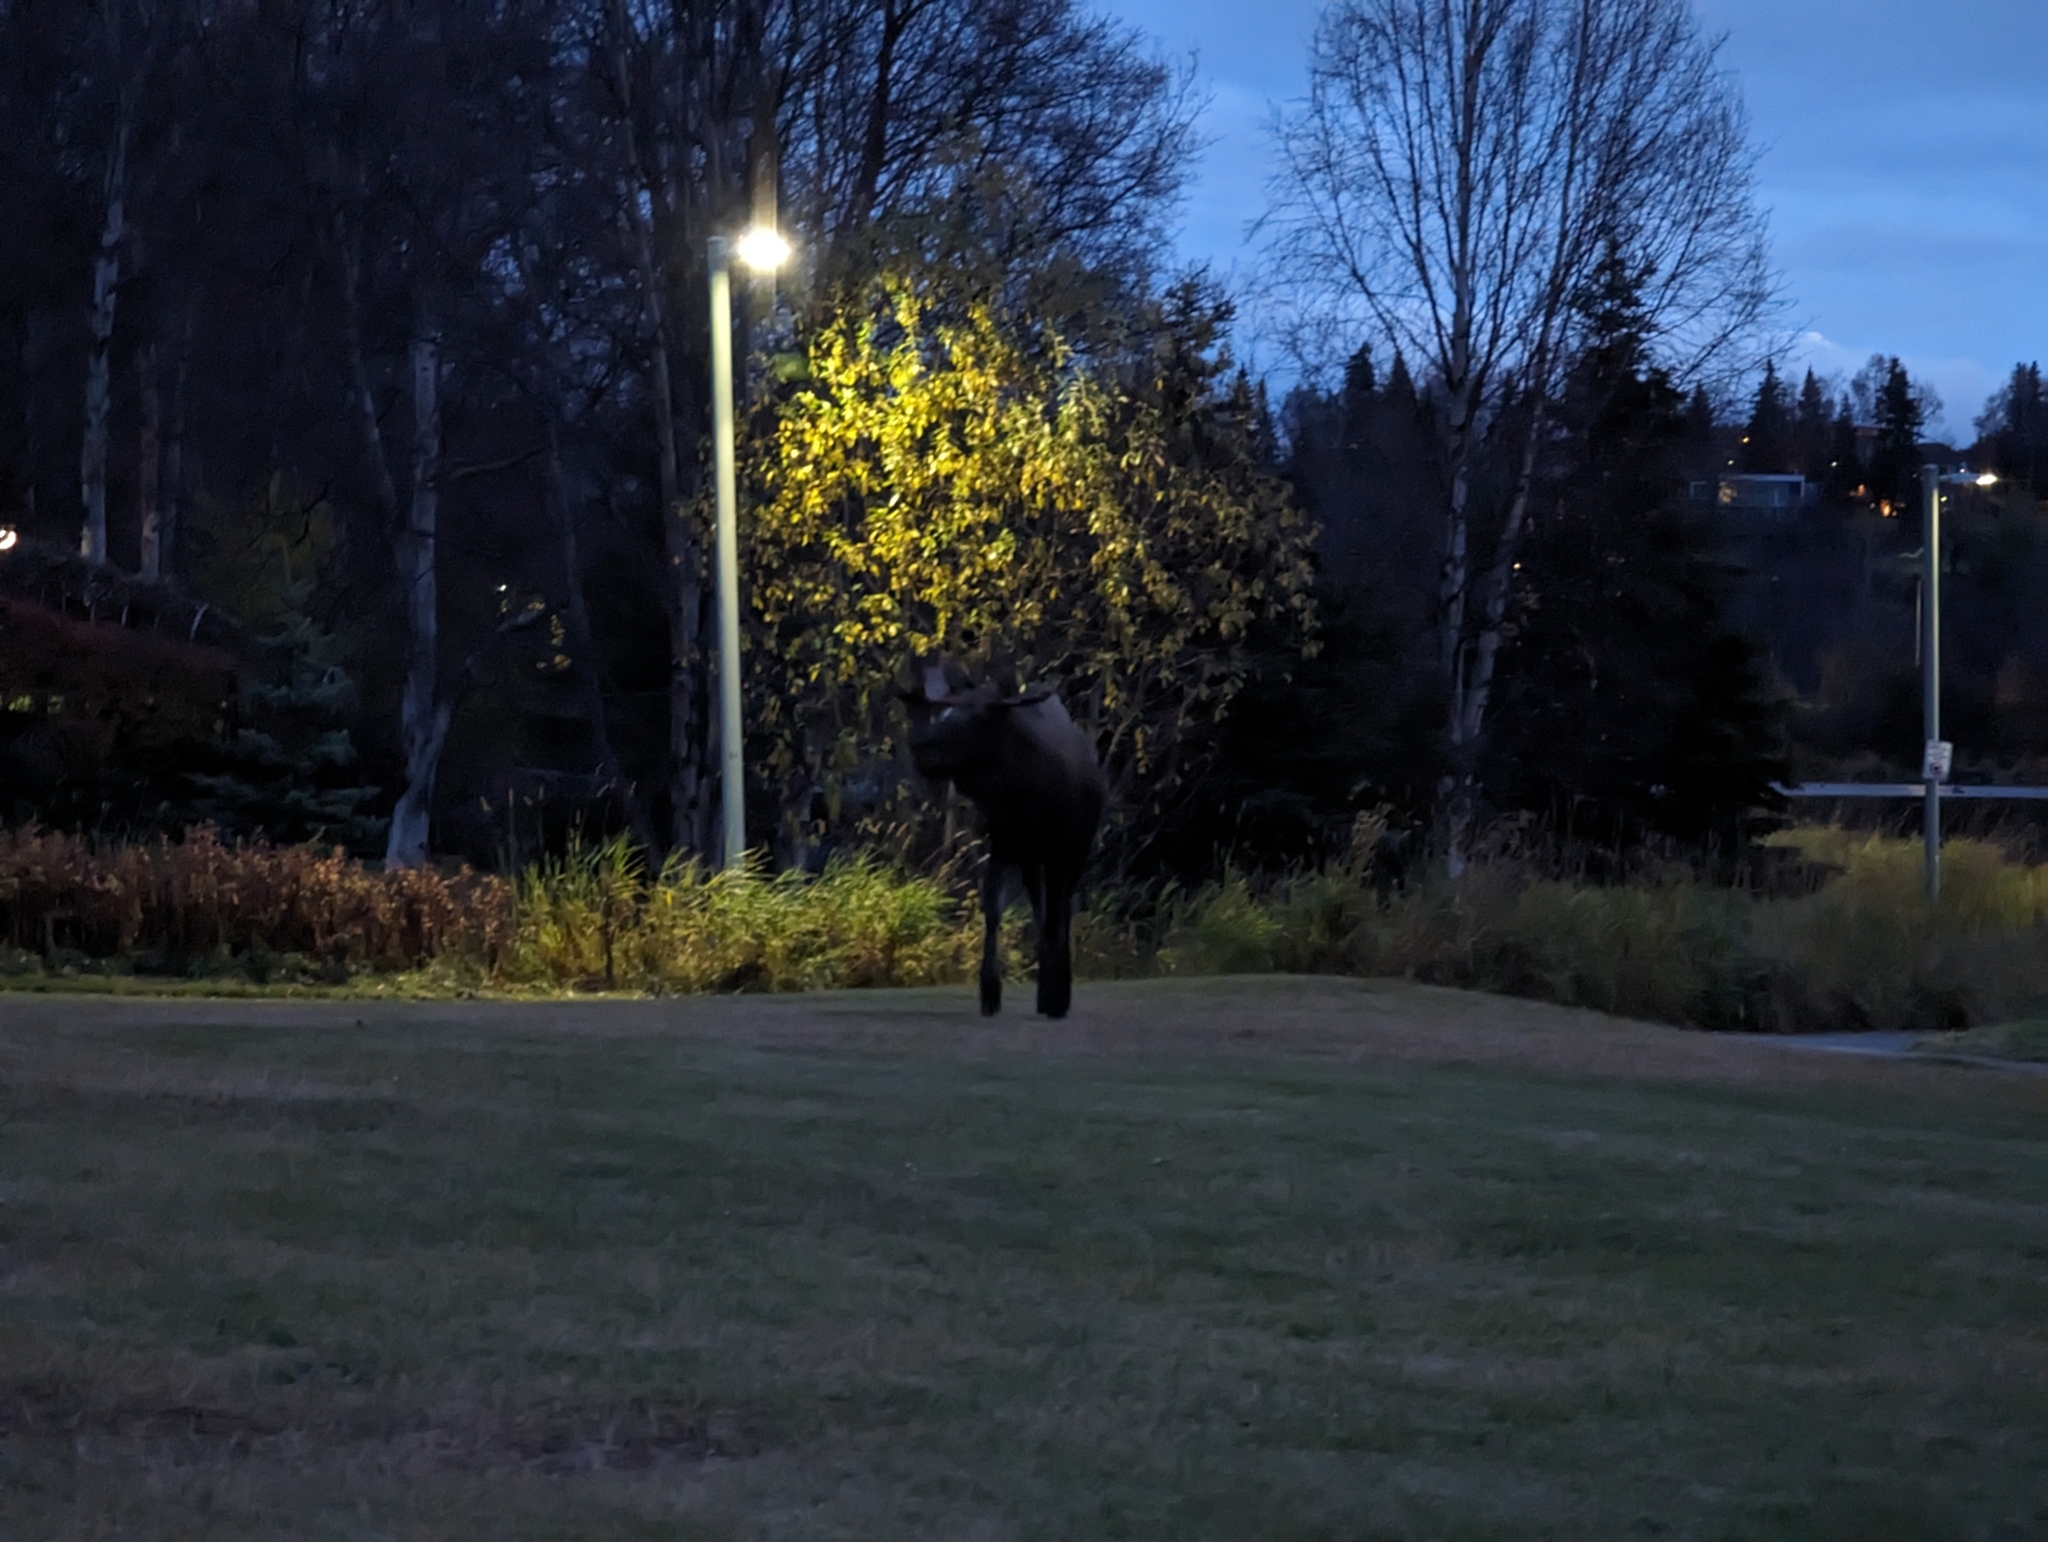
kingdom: Animalia
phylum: Chordata
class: Mammalia
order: Artiodactyla
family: Cervidae
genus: Alces
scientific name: Alces alces
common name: Moose
